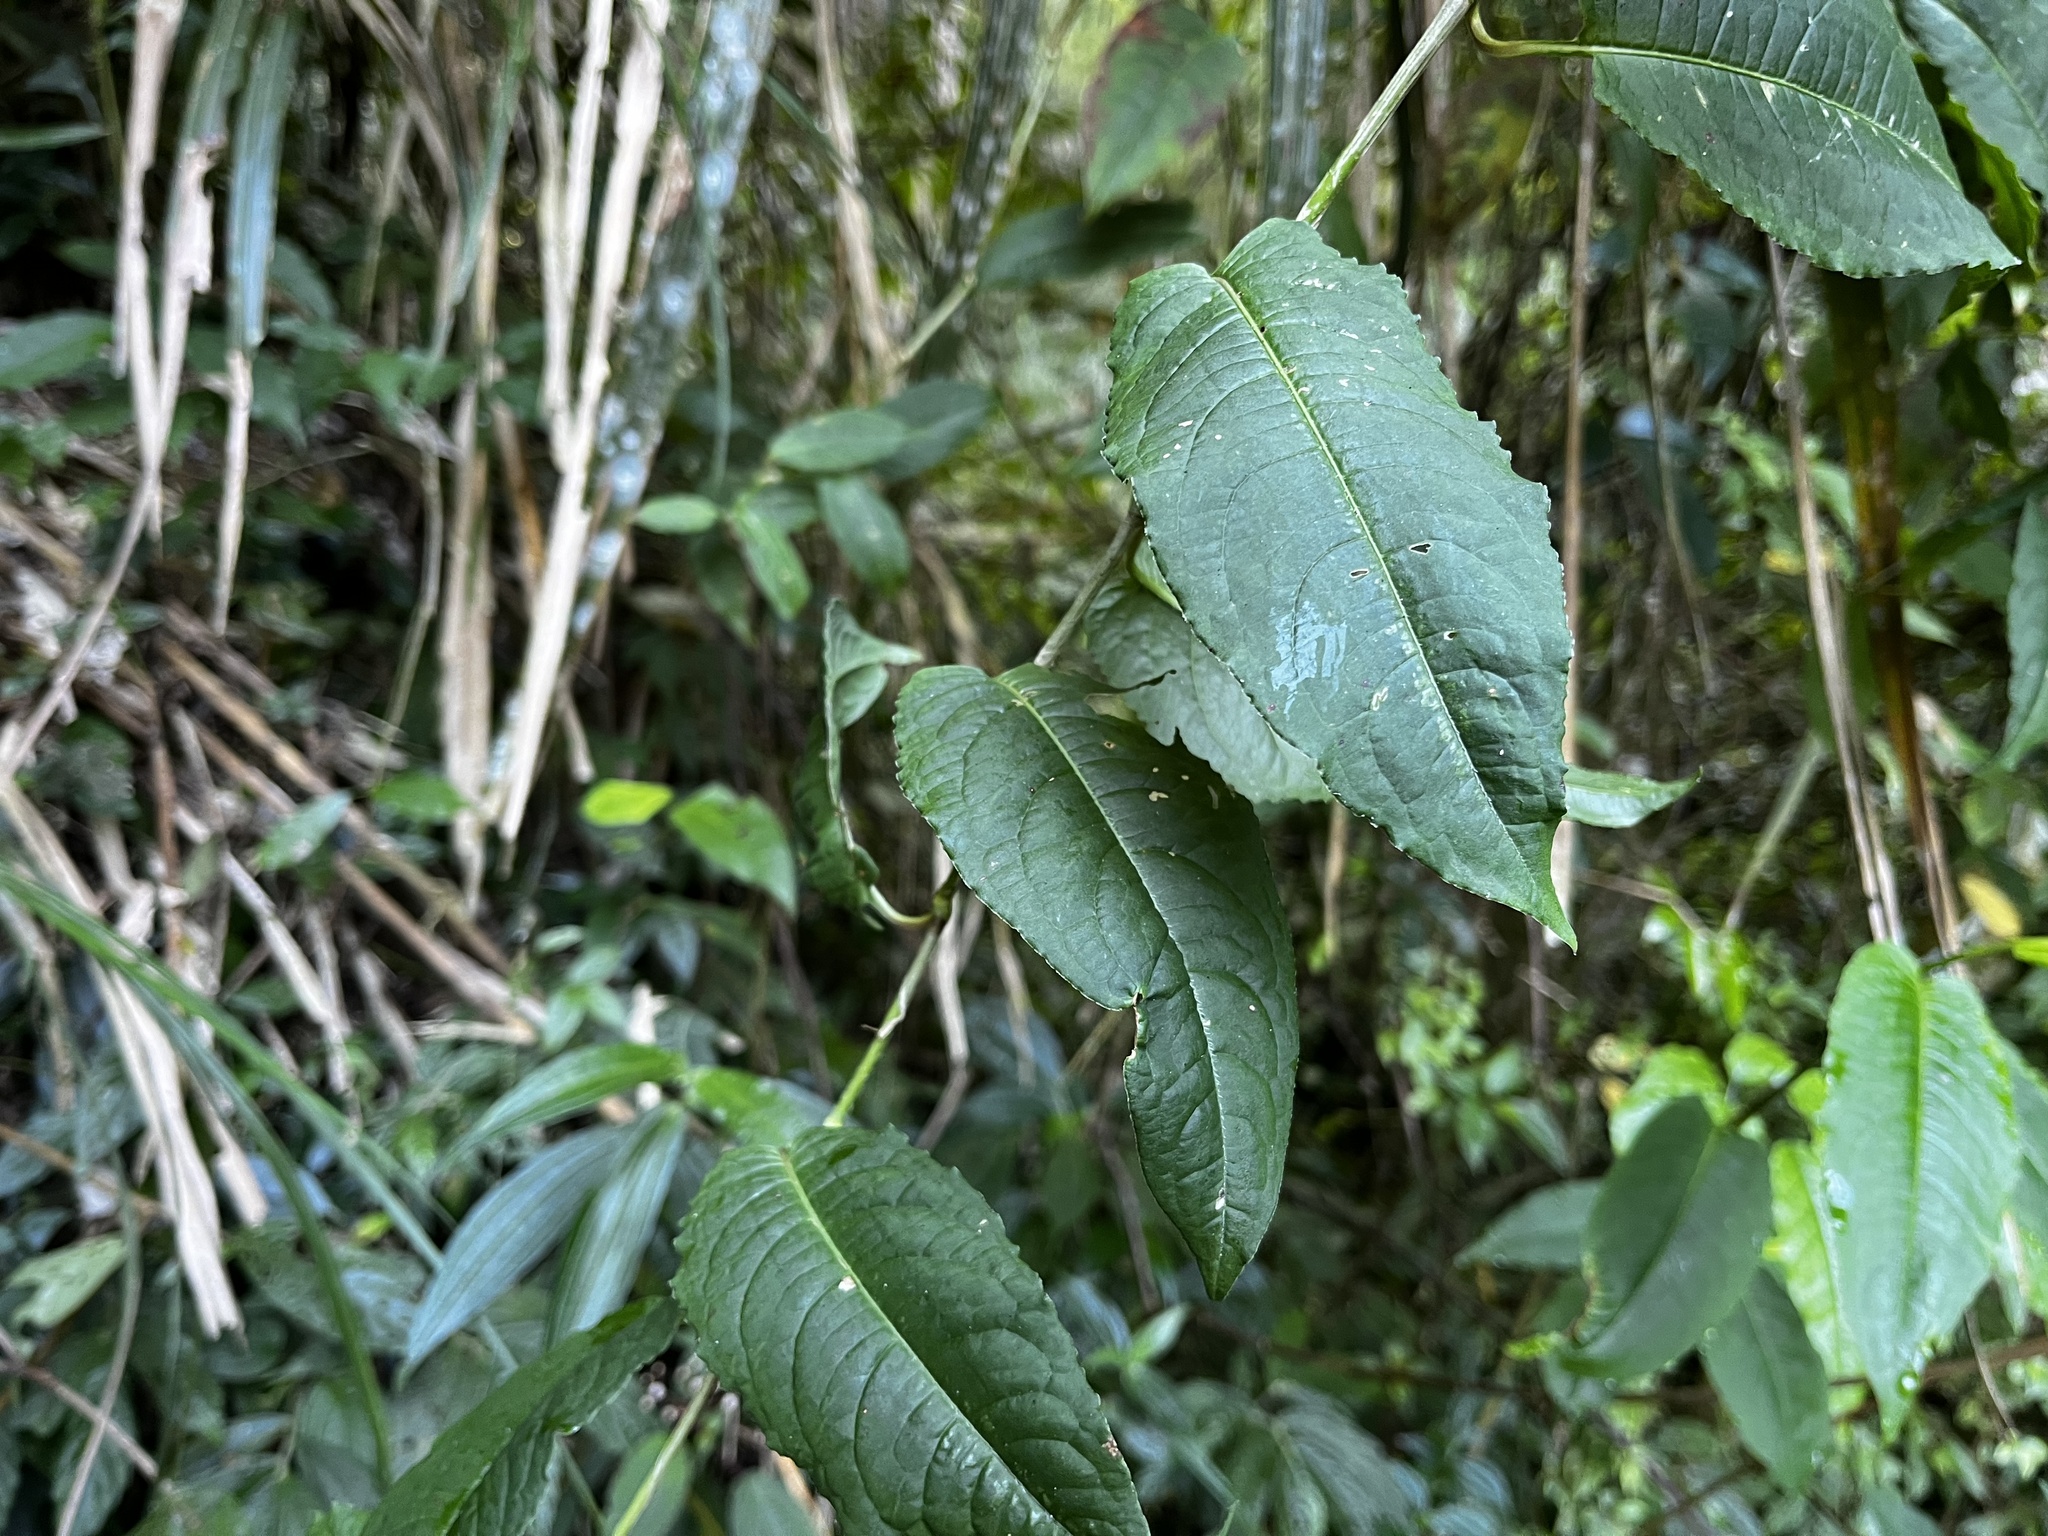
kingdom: Plantae
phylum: Tracheophyta
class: Magnoliopsida
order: Caryophyllales
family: Polygonaceae
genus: Persicaria
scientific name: Persicaria chinensis
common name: Chinese knotweed
